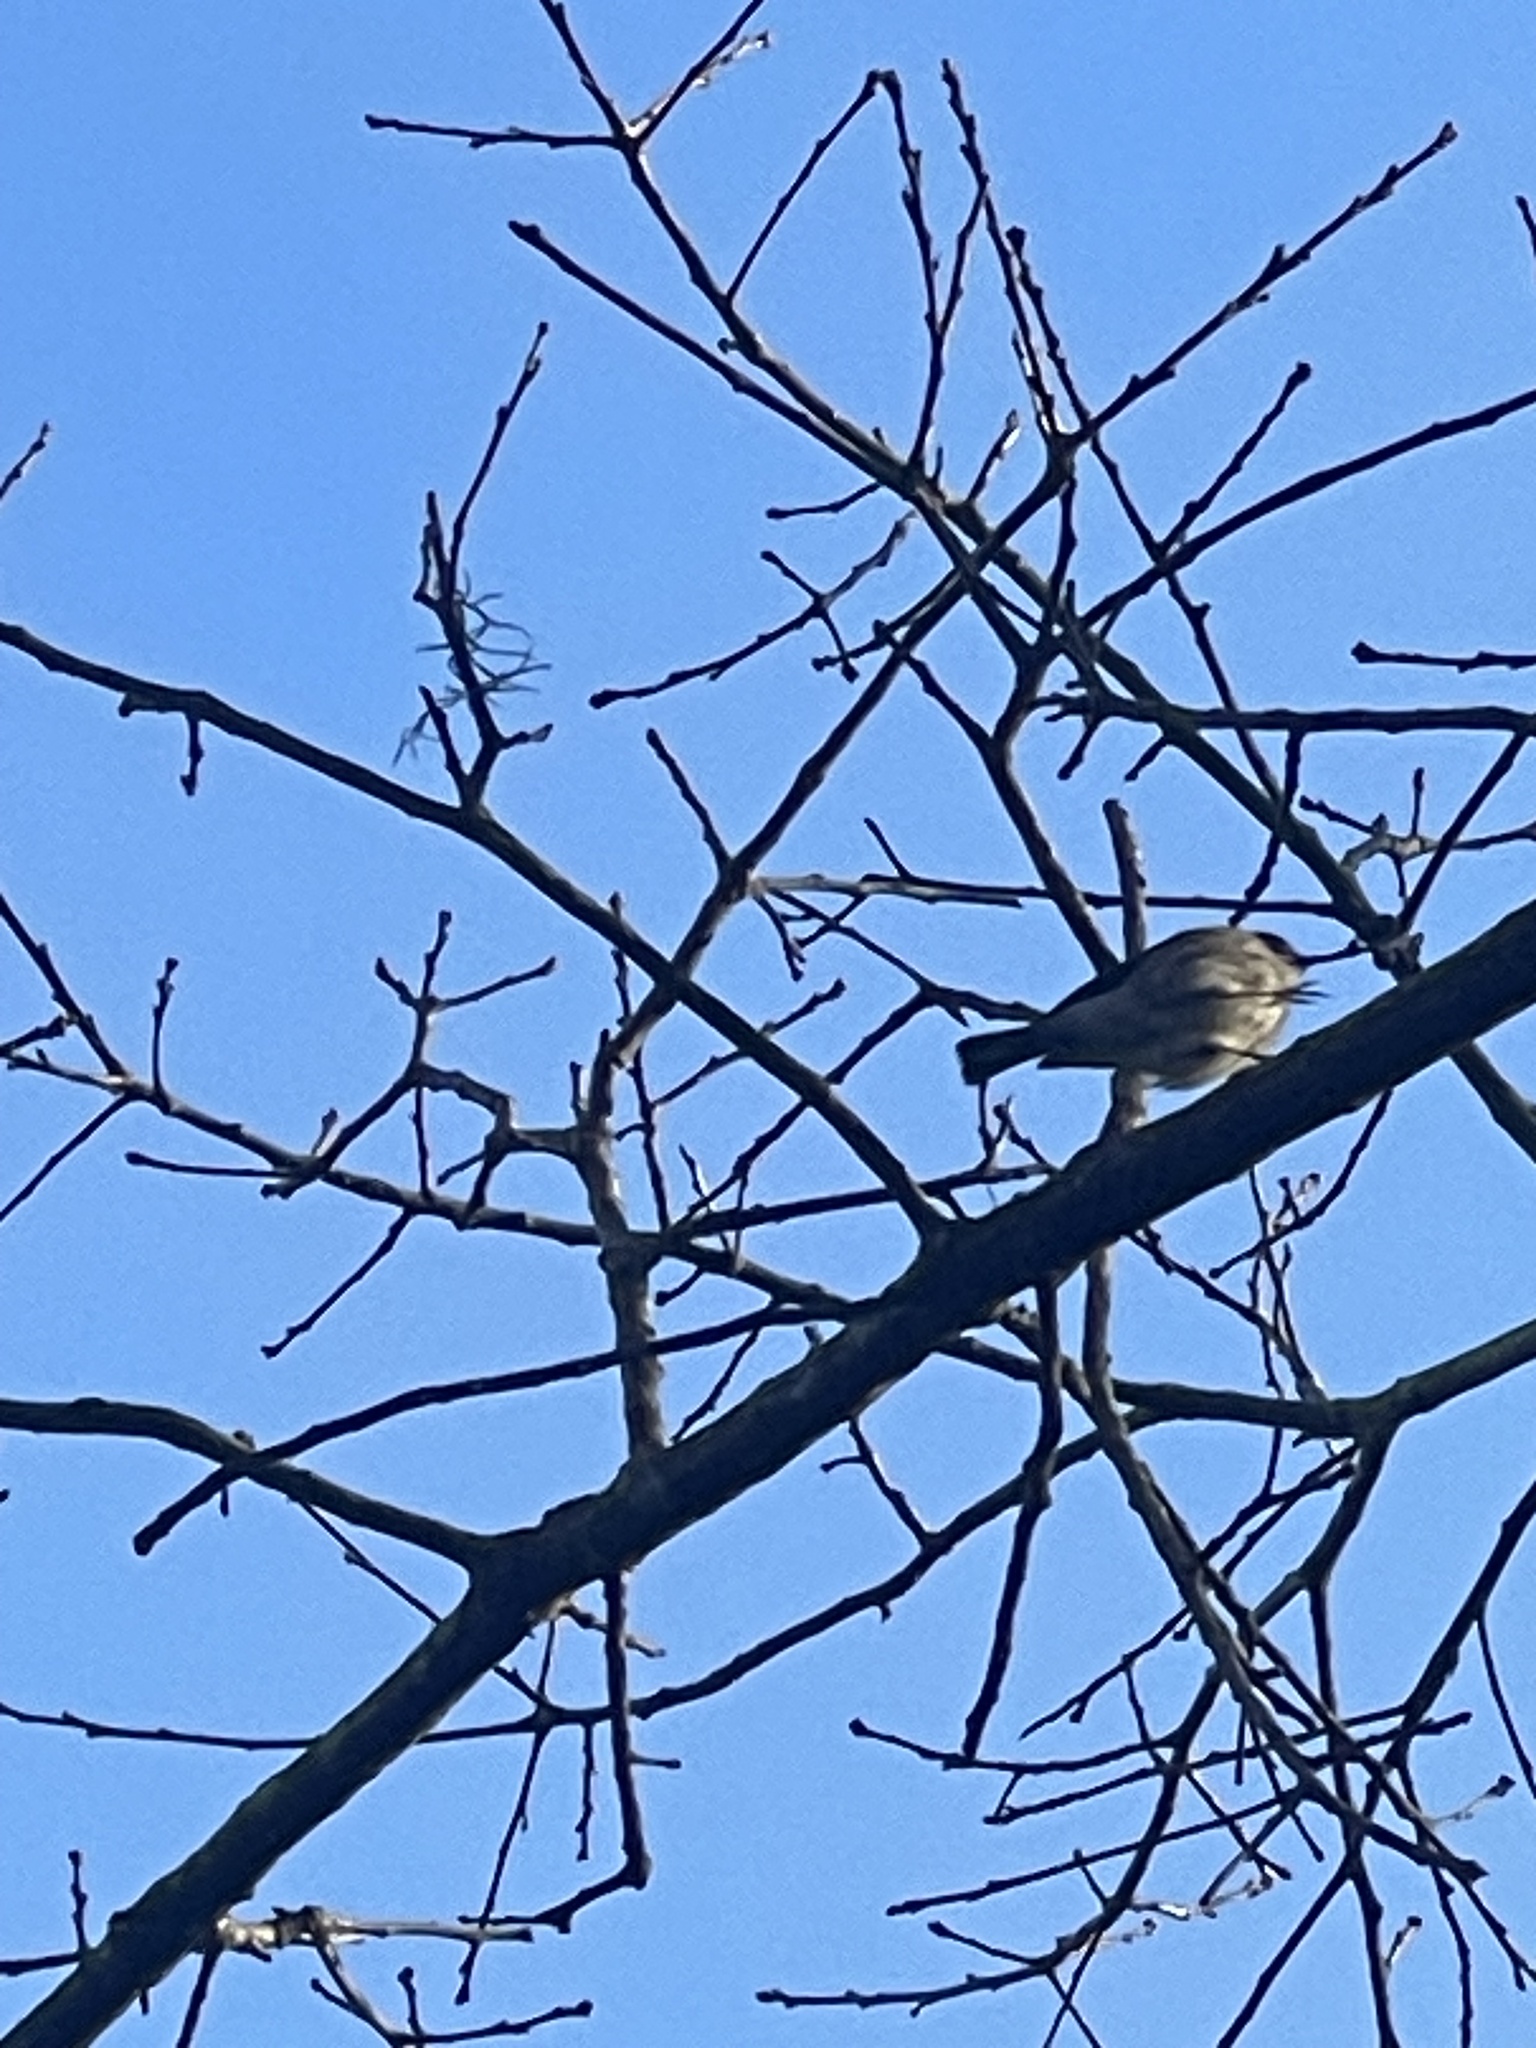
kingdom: Animalia
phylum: Chordata
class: Aves
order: Passeriformes
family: Parulidae
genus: Setophaga
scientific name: Setophaga coronata
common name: Myrtle warbler
